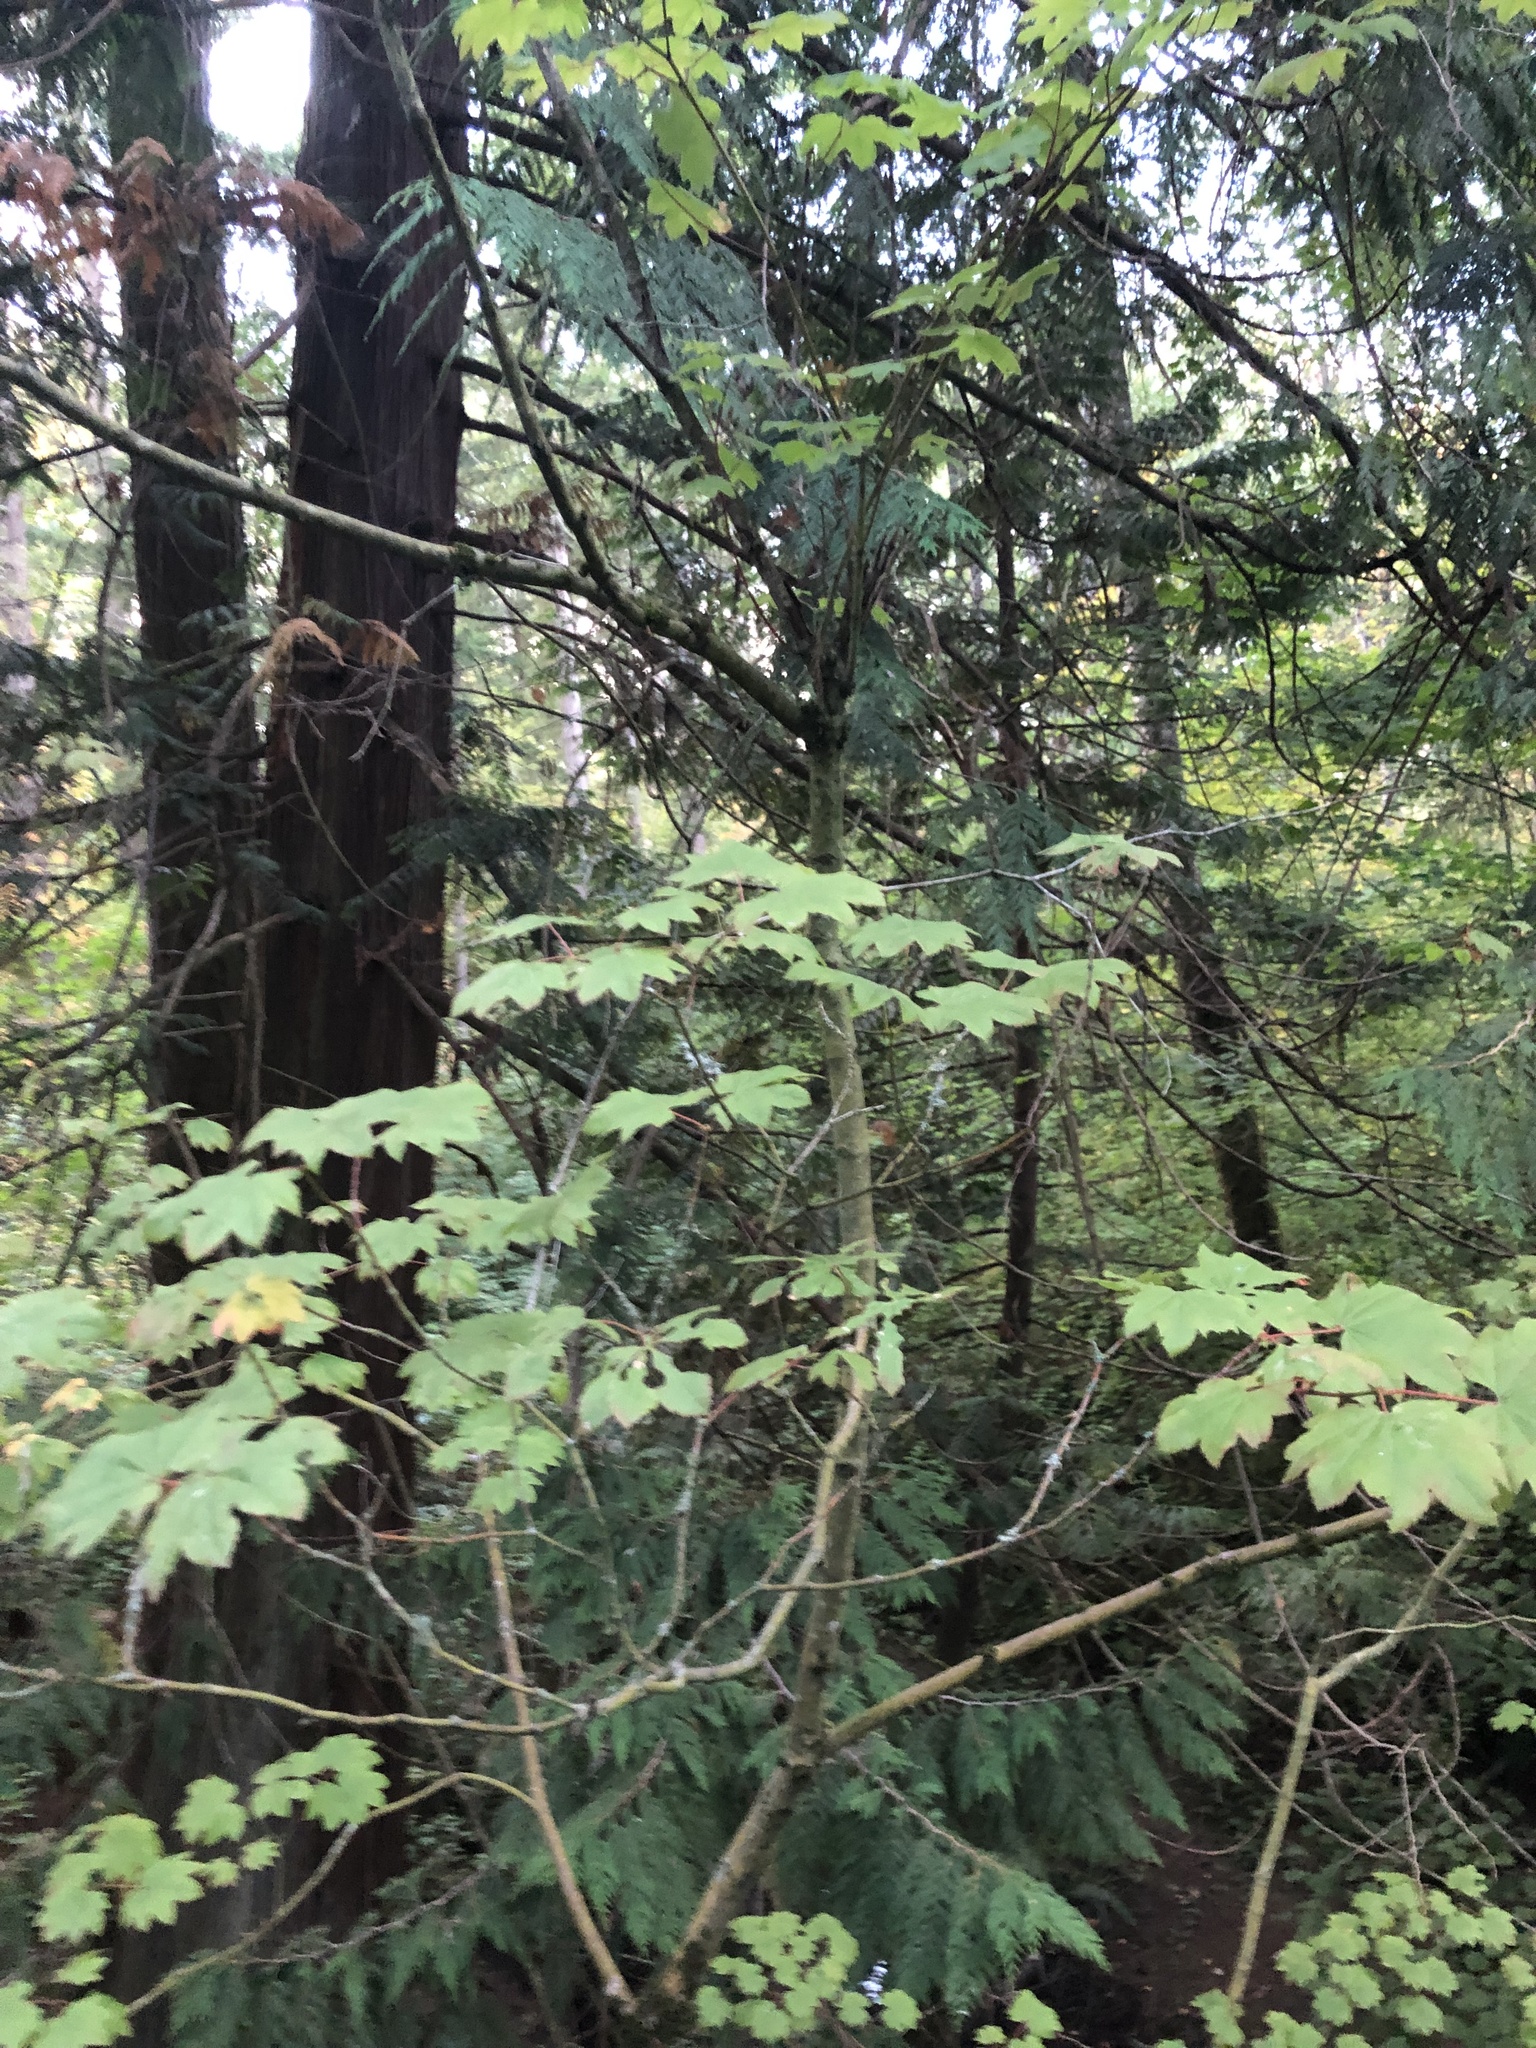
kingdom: Plantae
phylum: Tracheophyta
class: Magnoliopsida
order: Sapindales
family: Sapindaceae
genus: Acer
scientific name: Acer circinatum
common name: Vine maple
